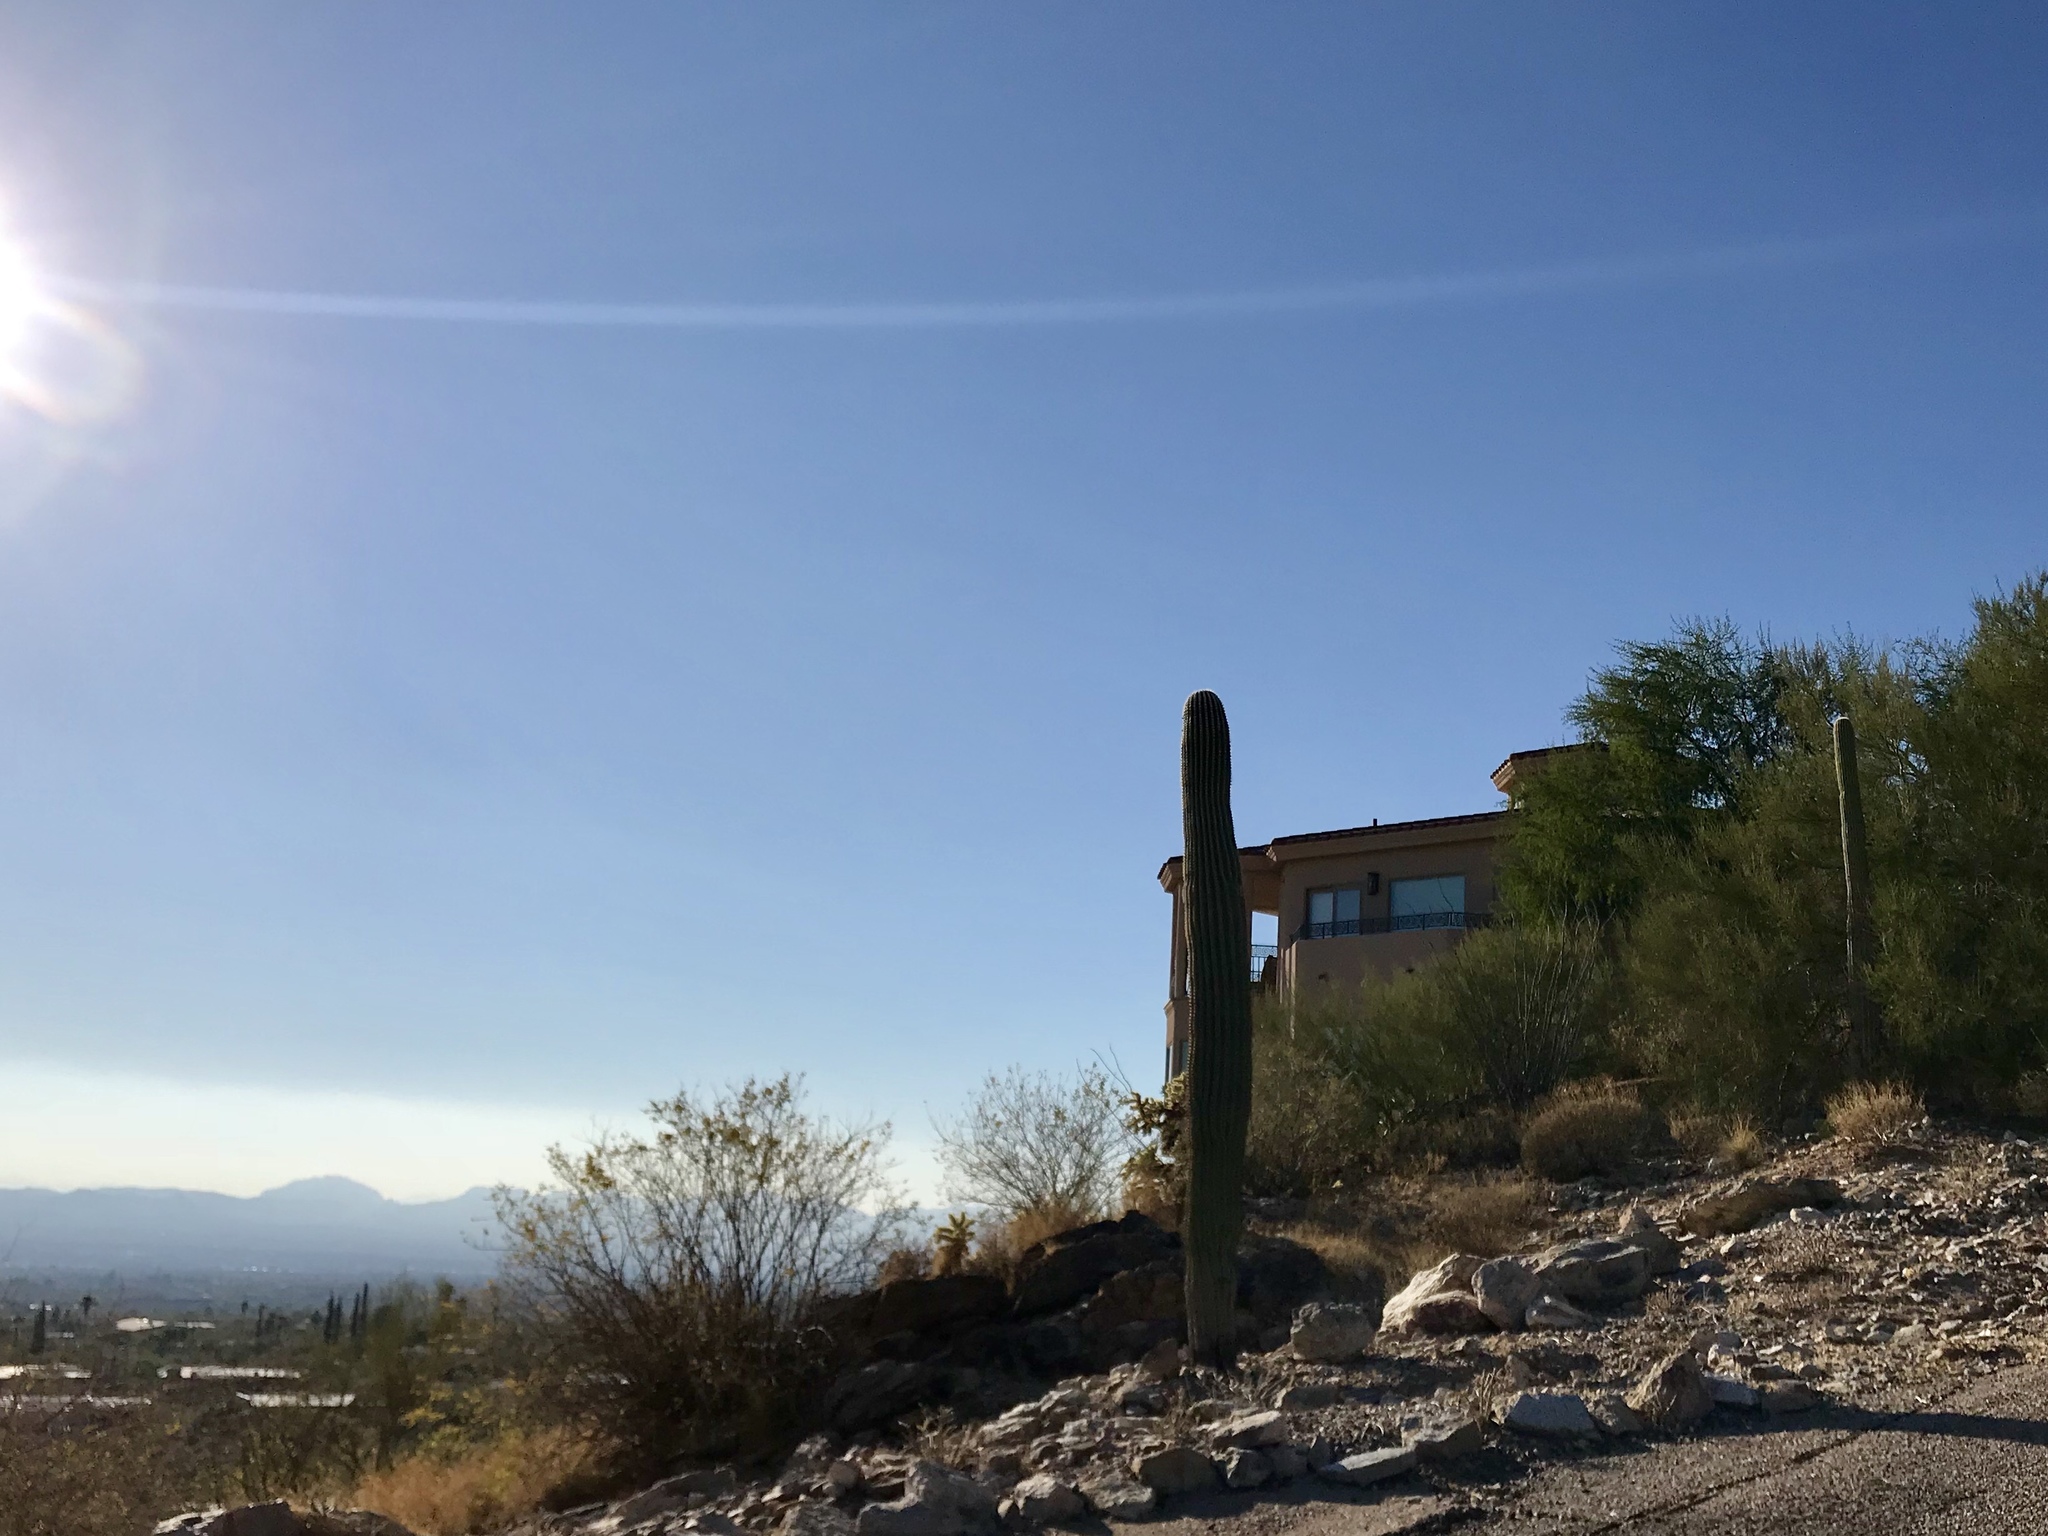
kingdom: Plantae
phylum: Tracheophyta
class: Magnoliopsida
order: Caryophyllales
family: Cactaceae
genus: Carnegiea
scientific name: Carnegiea gigantea
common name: Saguaro
